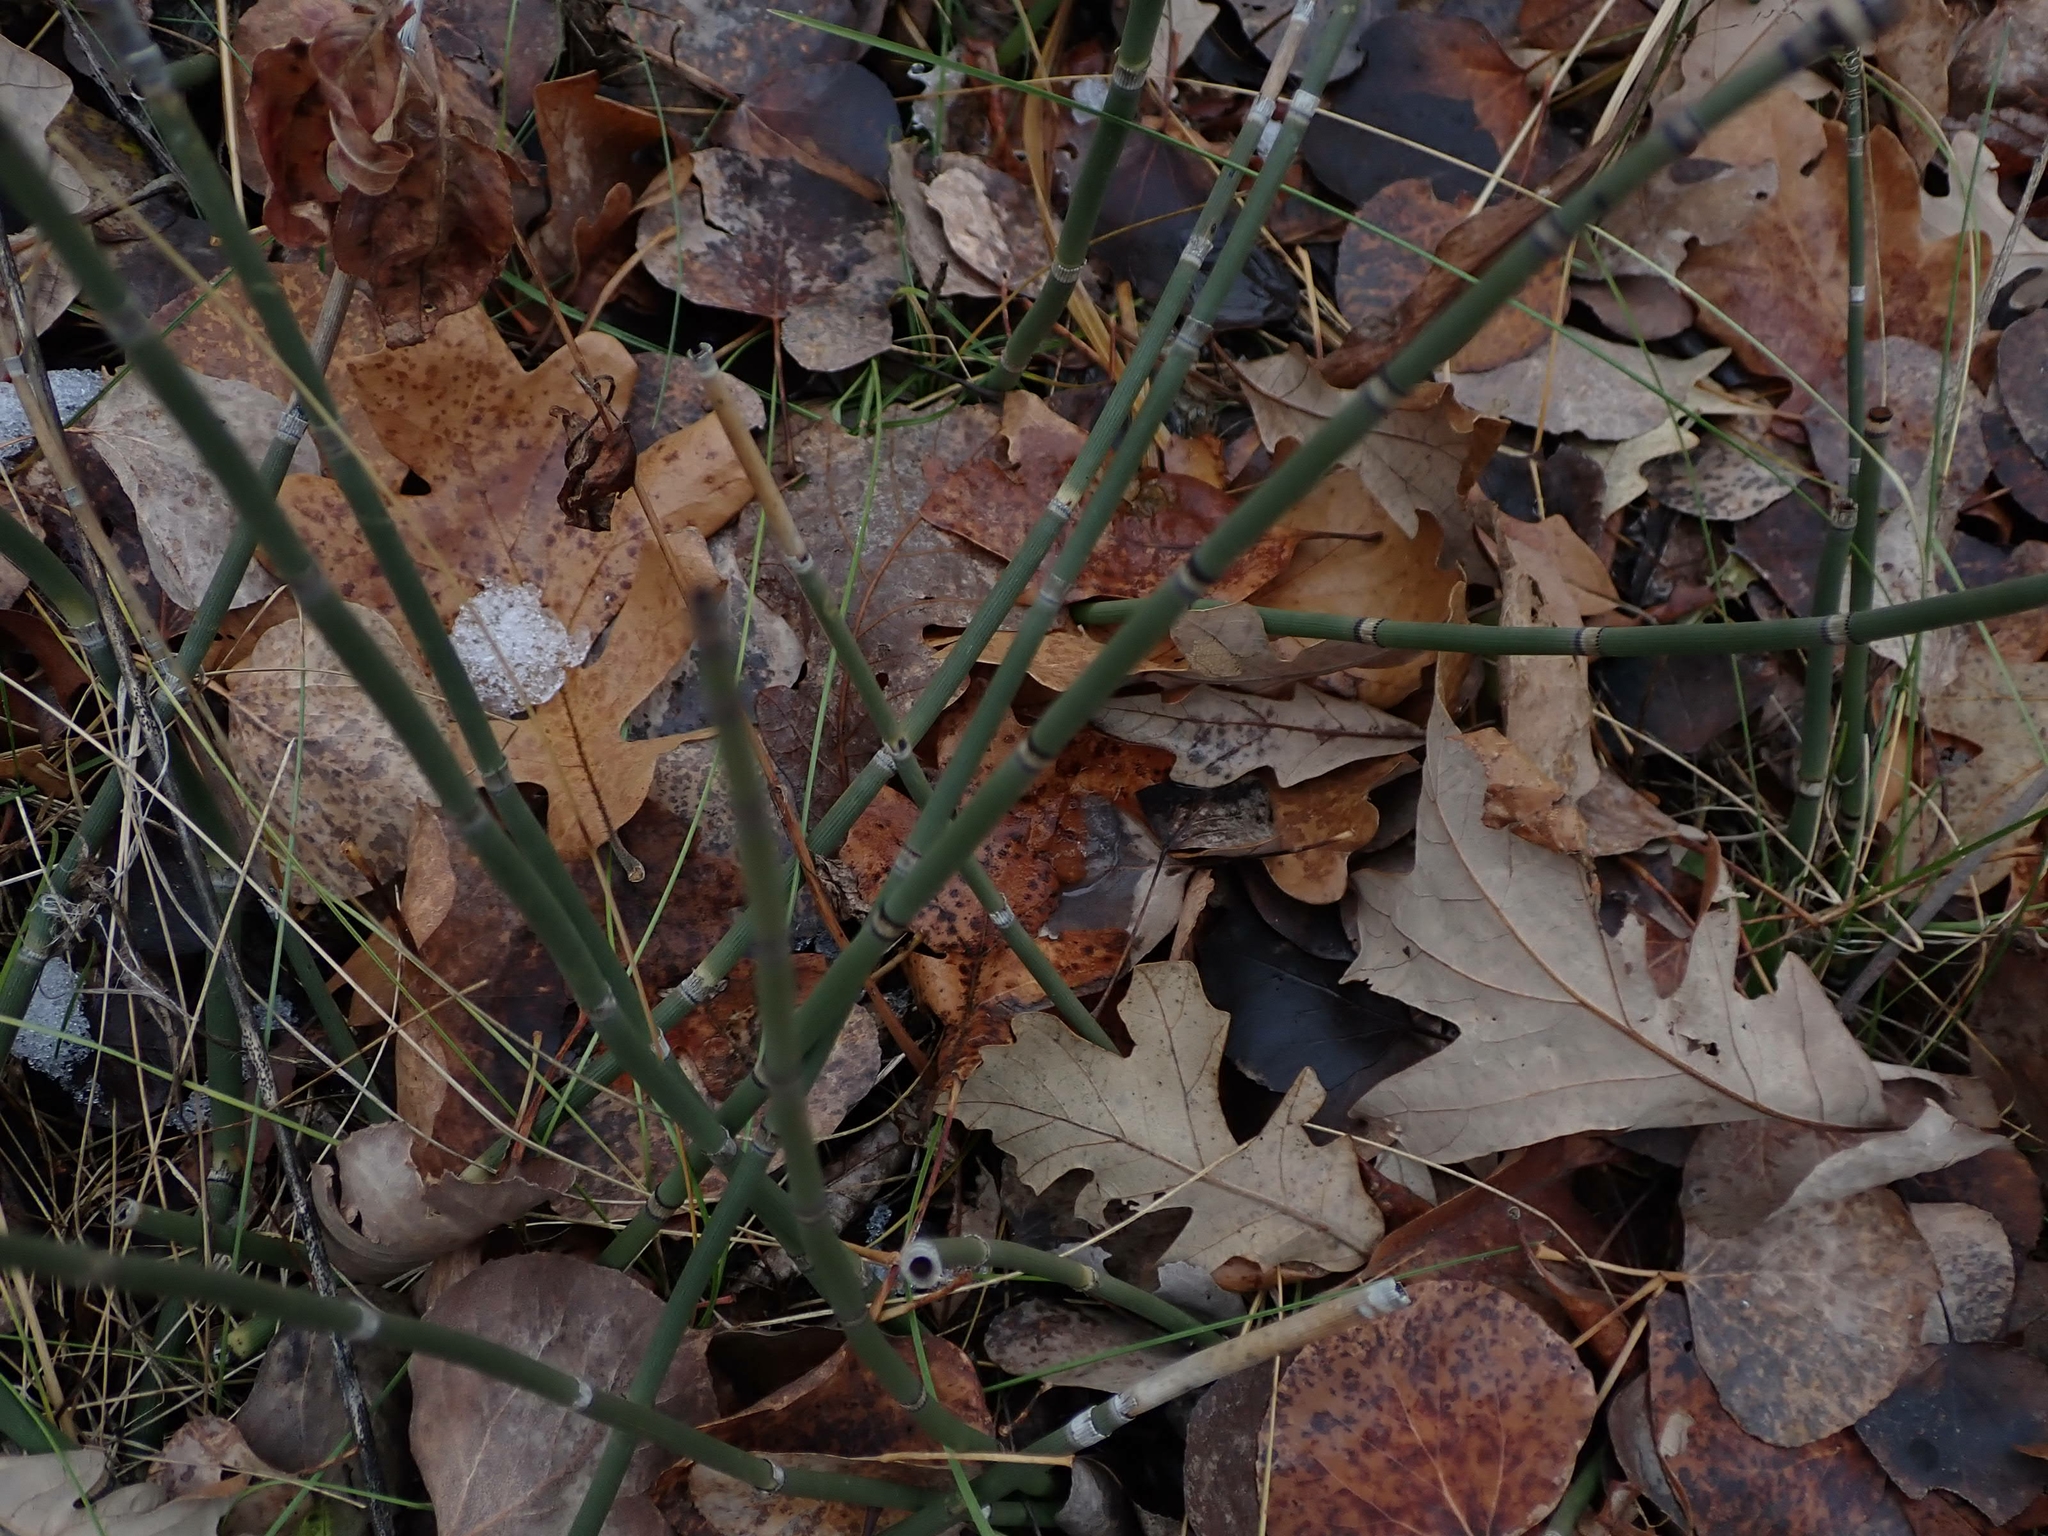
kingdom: Plantae
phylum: Tracheophyta
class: Polypodiopsida
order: Equisetales
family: Equisetaceae
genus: Equisetum
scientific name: Equisetum praealtum
